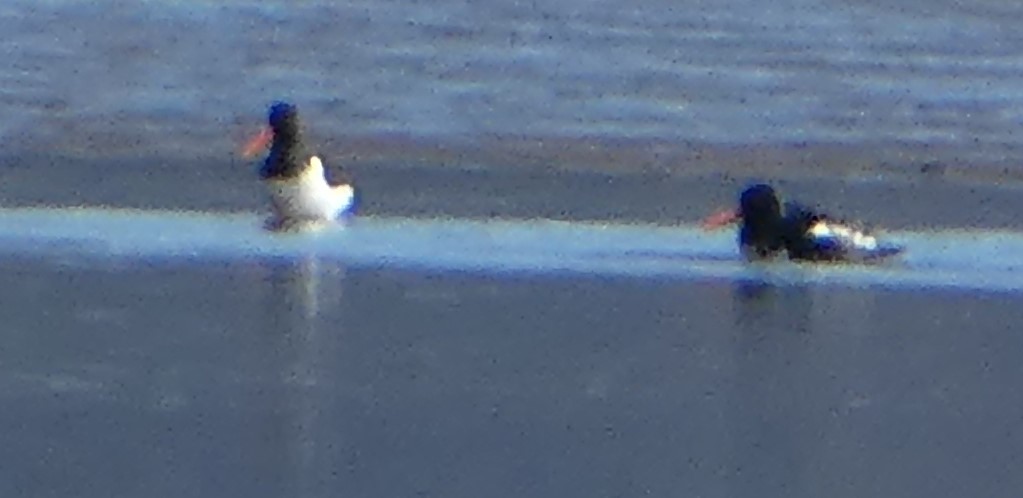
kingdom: Animalia
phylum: Chordata
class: Aves
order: Charadriiformes
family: Haematopodidae
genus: Haematopus
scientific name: Haematopus ostralegus
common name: Eurasian oystercatcher
